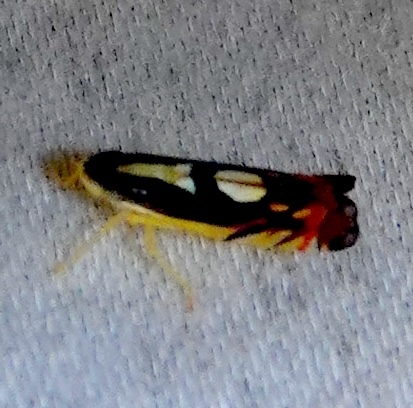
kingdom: Animalia
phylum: Arthropoda
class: Insecta
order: Hemiptera
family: Cicadellidae
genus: Diedrocephala
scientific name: Diedrocephala variegata
